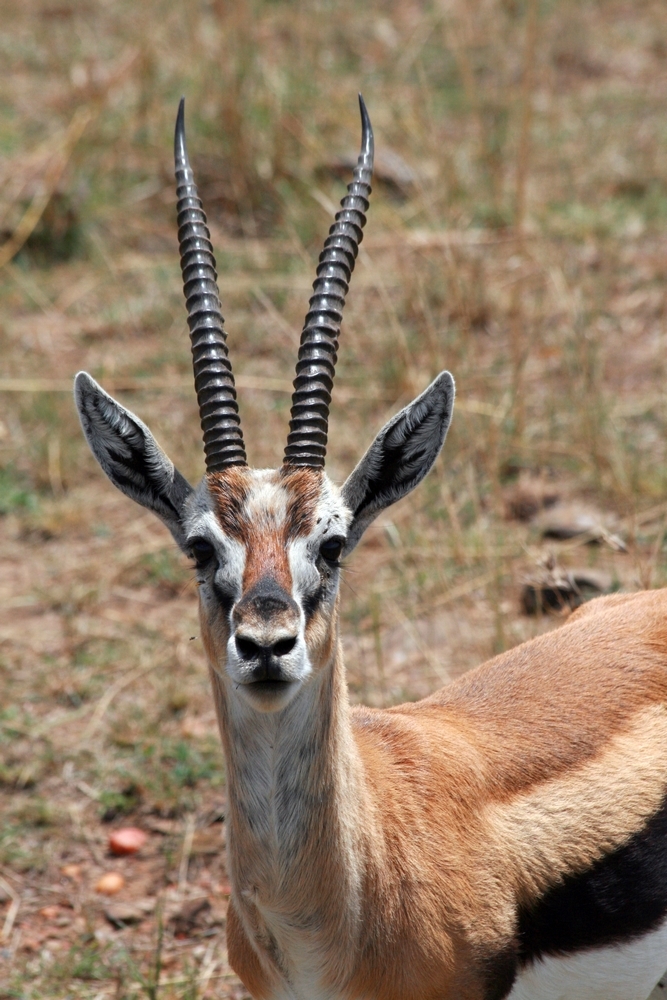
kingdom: Animalia
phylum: Chordata
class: Mammalia
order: Artiodactyla
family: Bovidae
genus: Eudorcas
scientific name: Eudorcas thomsonii
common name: Thomson's gazelle
